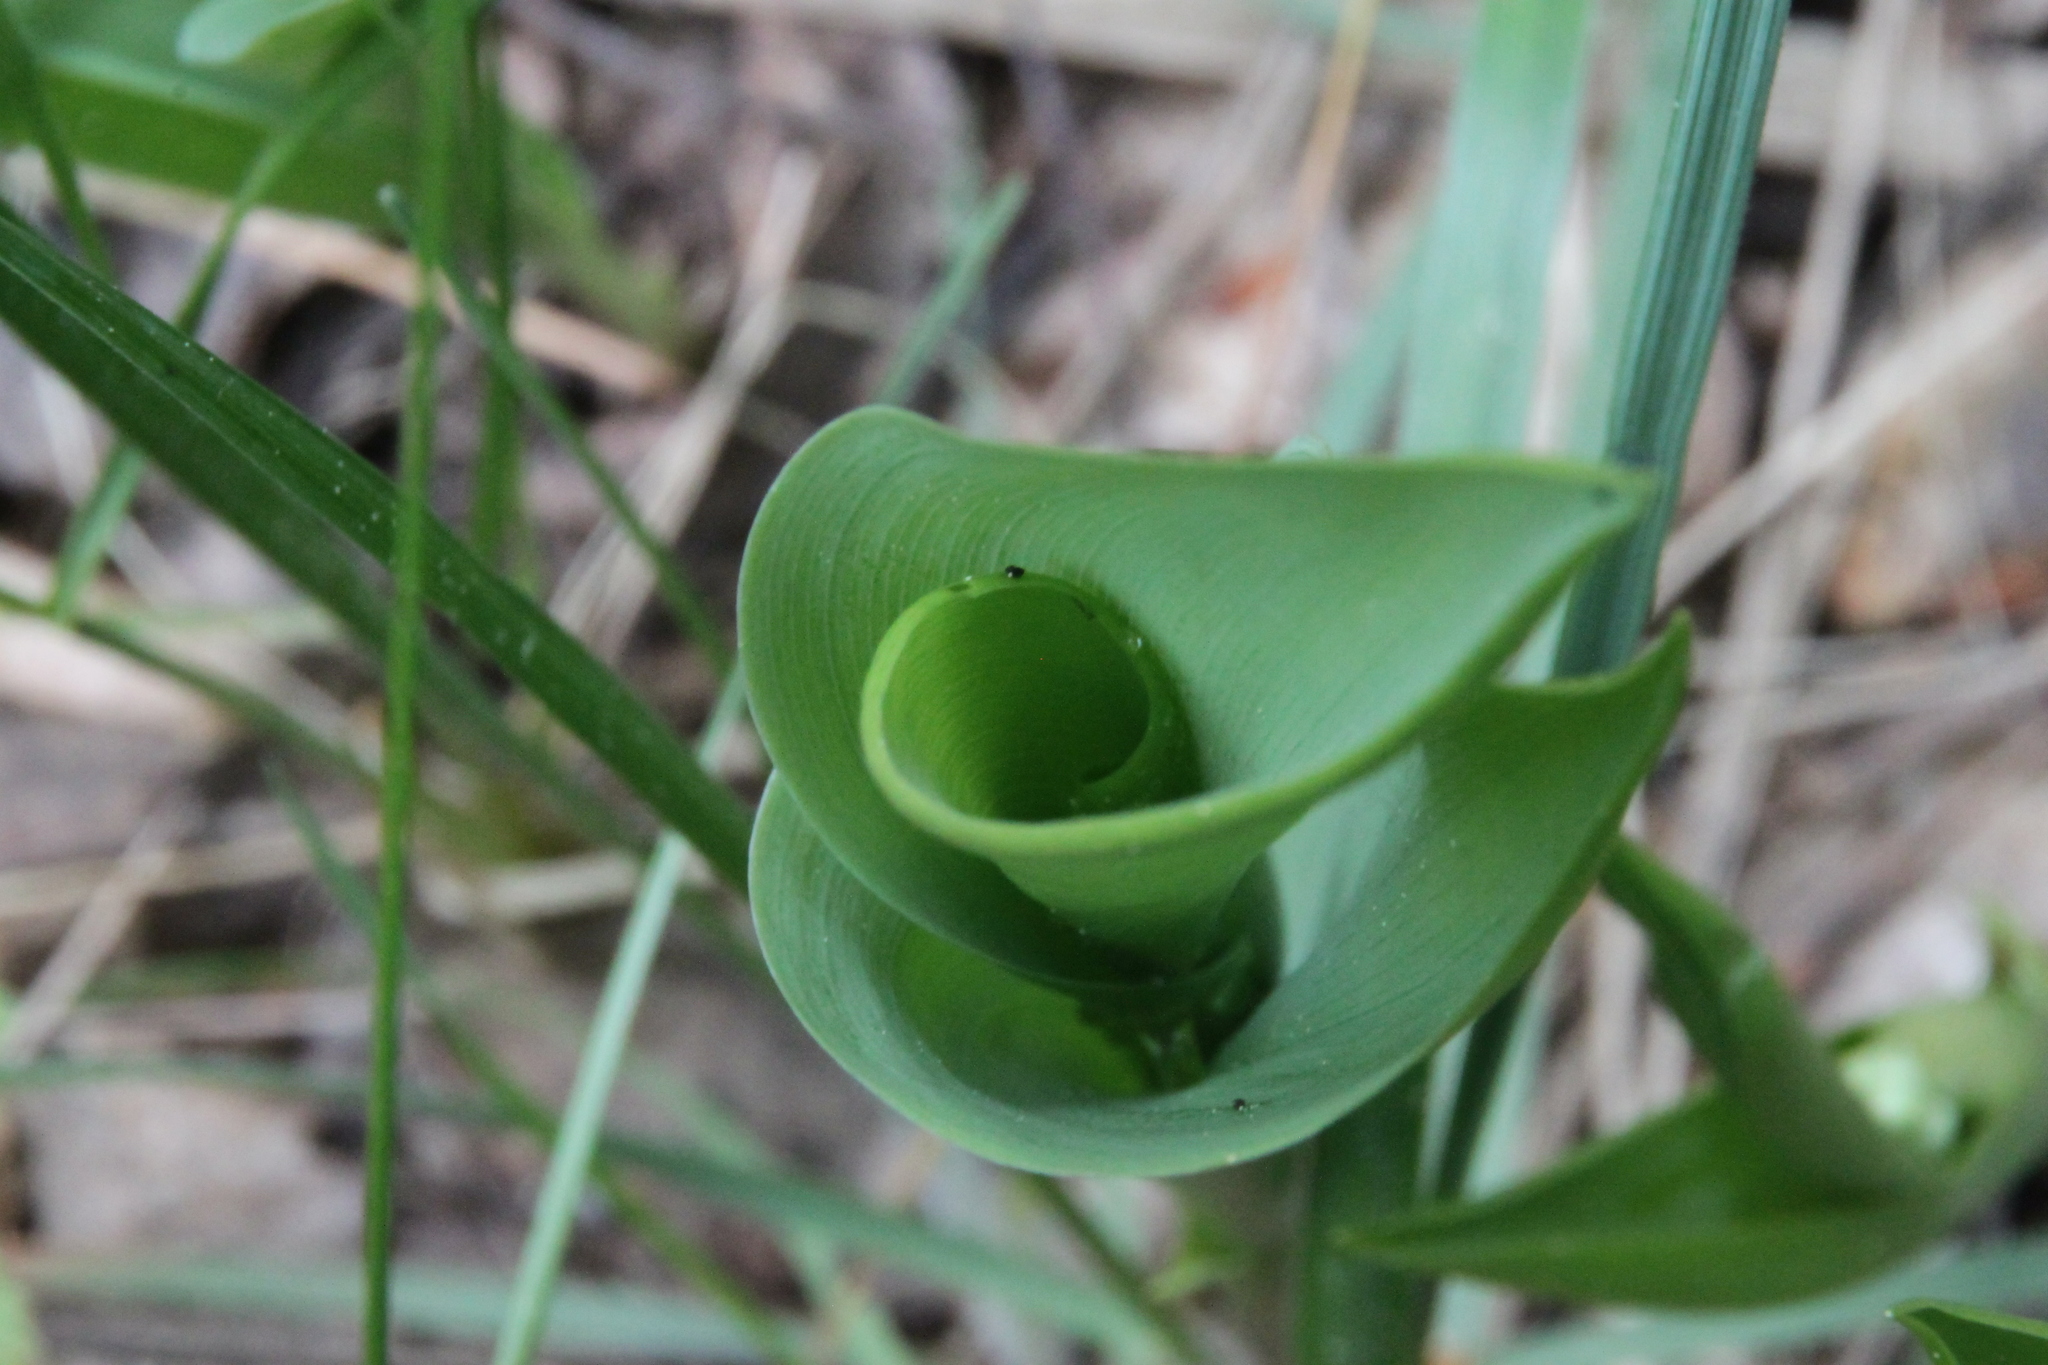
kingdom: Plantae
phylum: Tracheophyta
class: Liliopsida
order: Asparagales
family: Asparagaceae
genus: Convallaria
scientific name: Convallaria majalis
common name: Lily-of-the-valley
